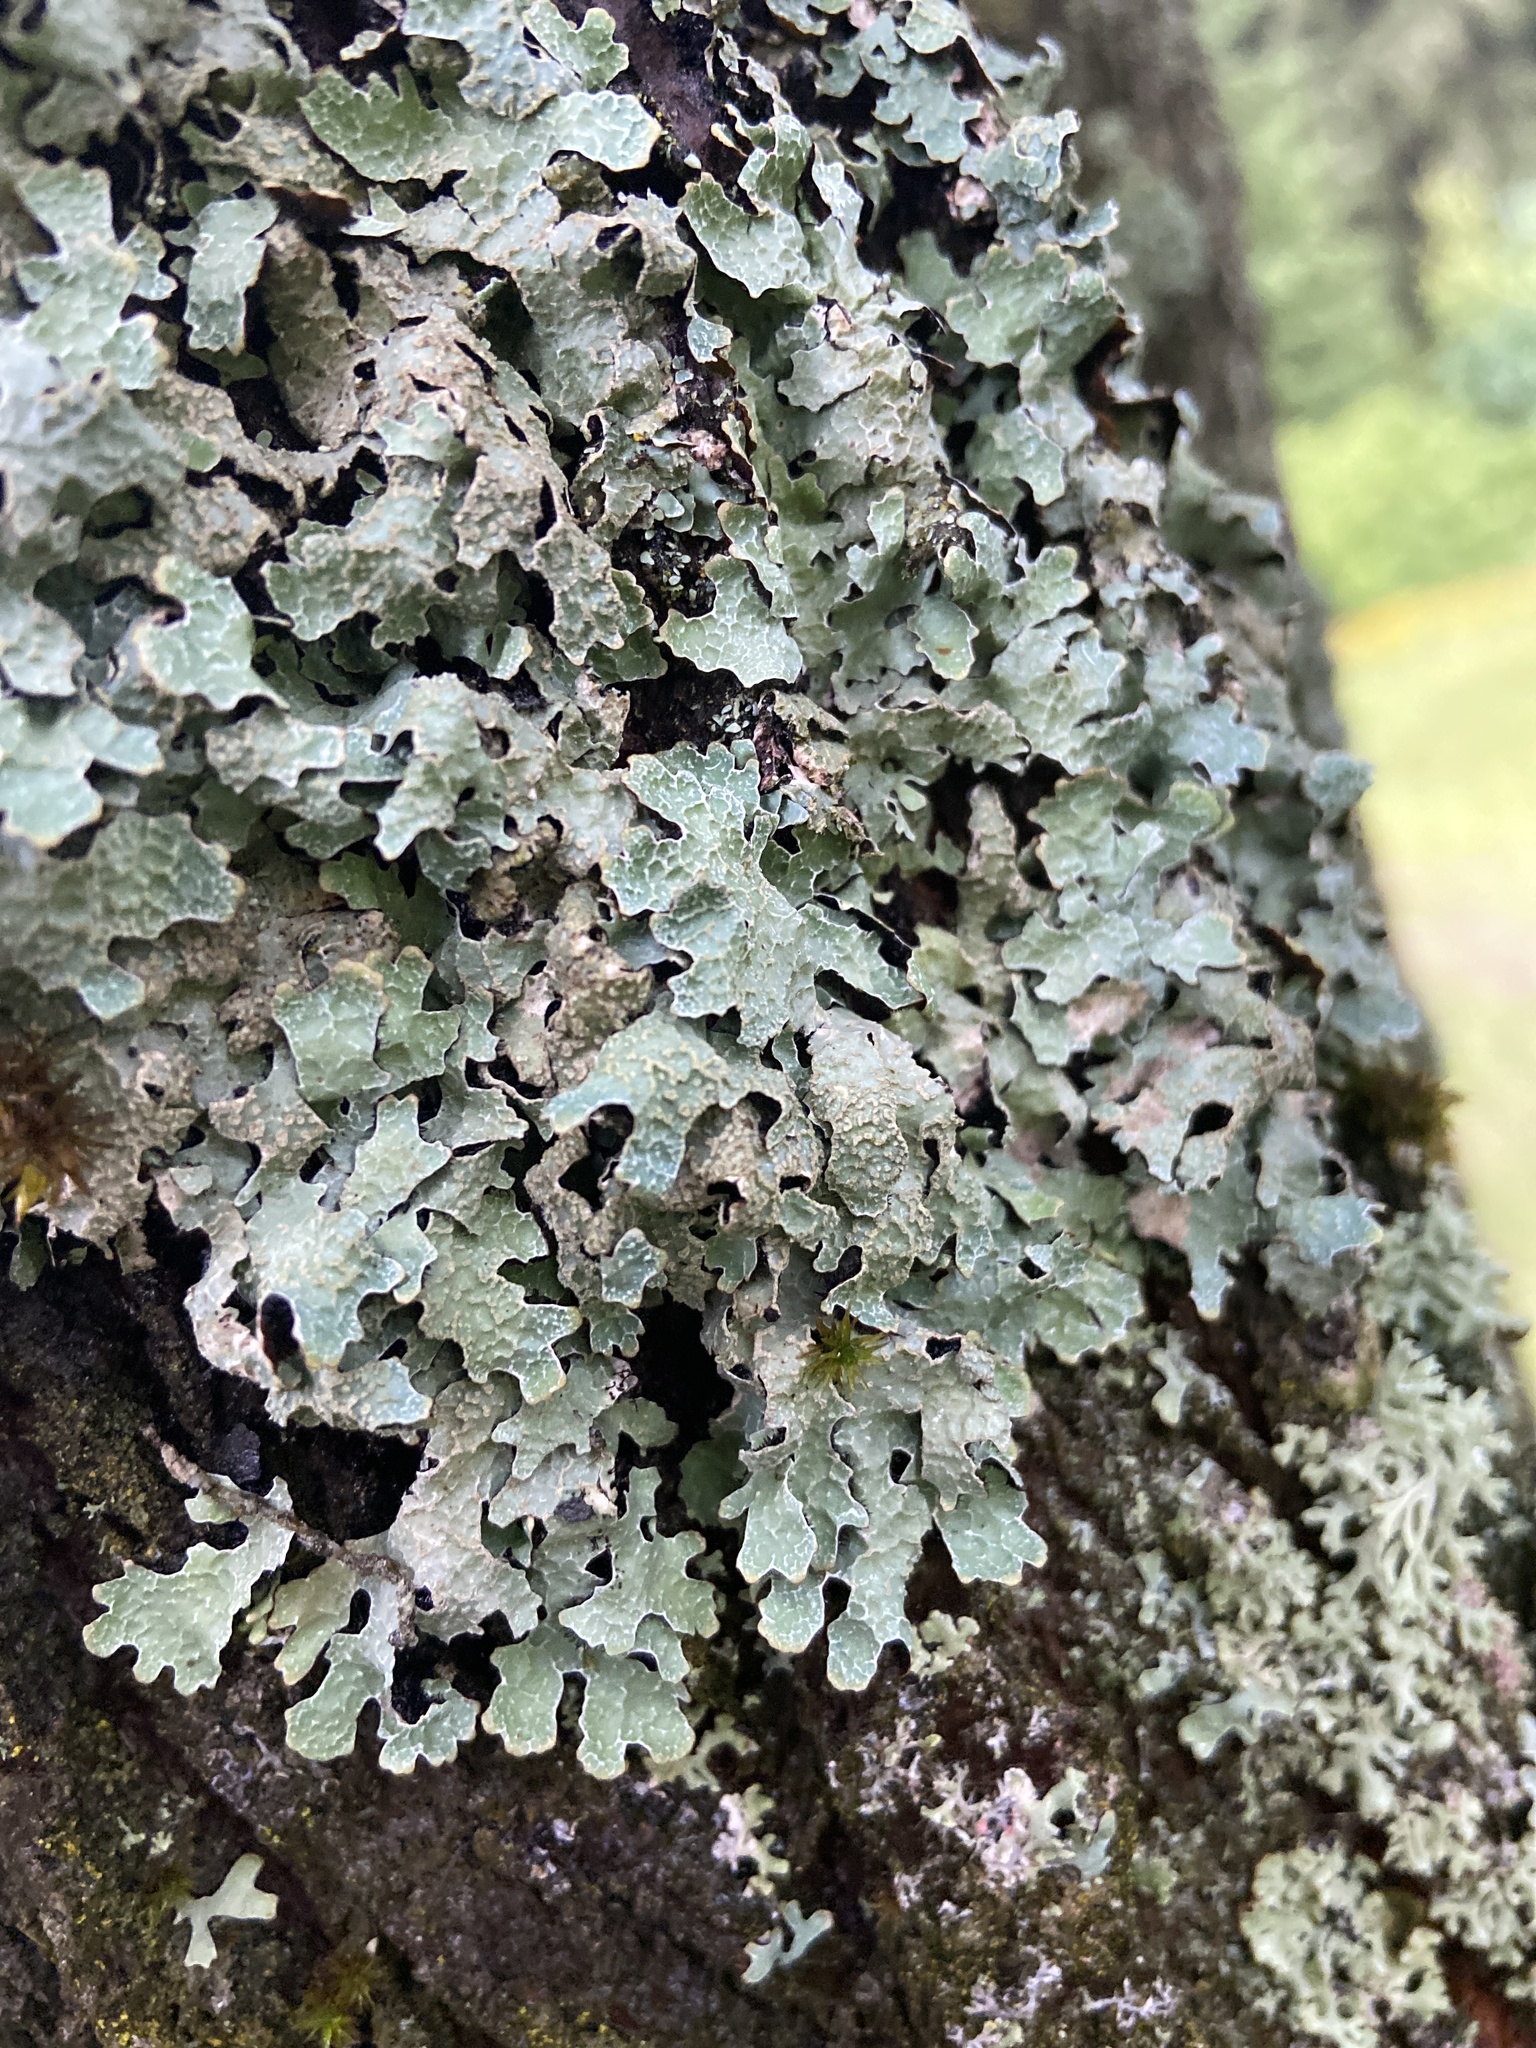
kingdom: Fungi
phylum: Ascomycota
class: Lecanoromycetes
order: Lecanorales
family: Parmeliaceae
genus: Parmelia
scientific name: Parmelia sulcata
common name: Netted shield lichen
